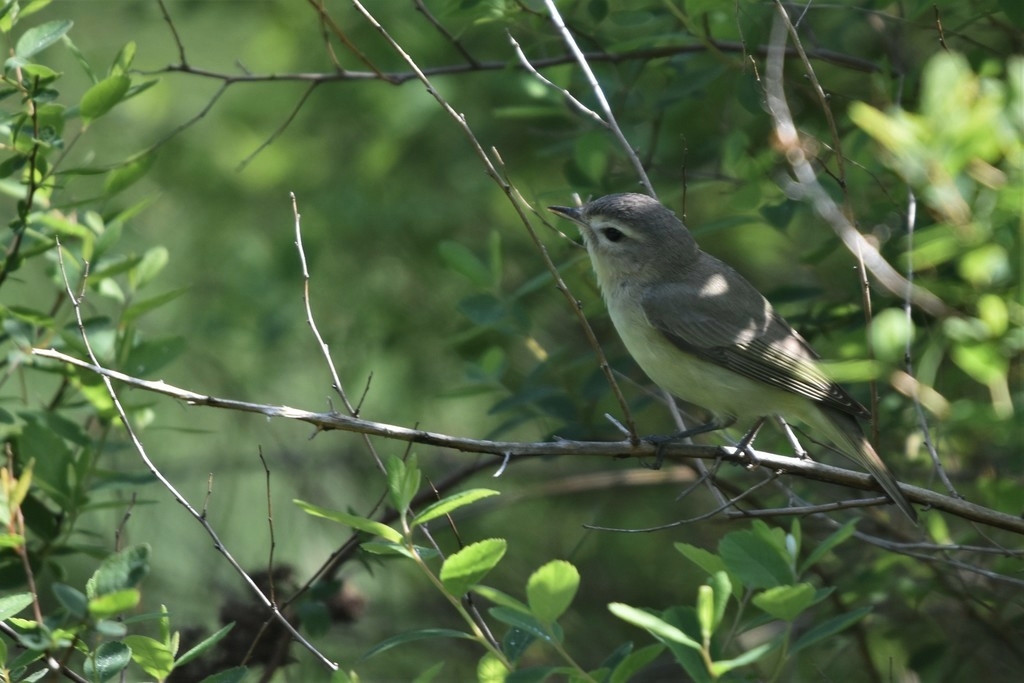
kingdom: Animalia
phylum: Chordata
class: Aves
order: Passeriformes
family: Vireonidae
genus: Vireo
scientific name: Vireo gilvus
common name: Warbling vireo
